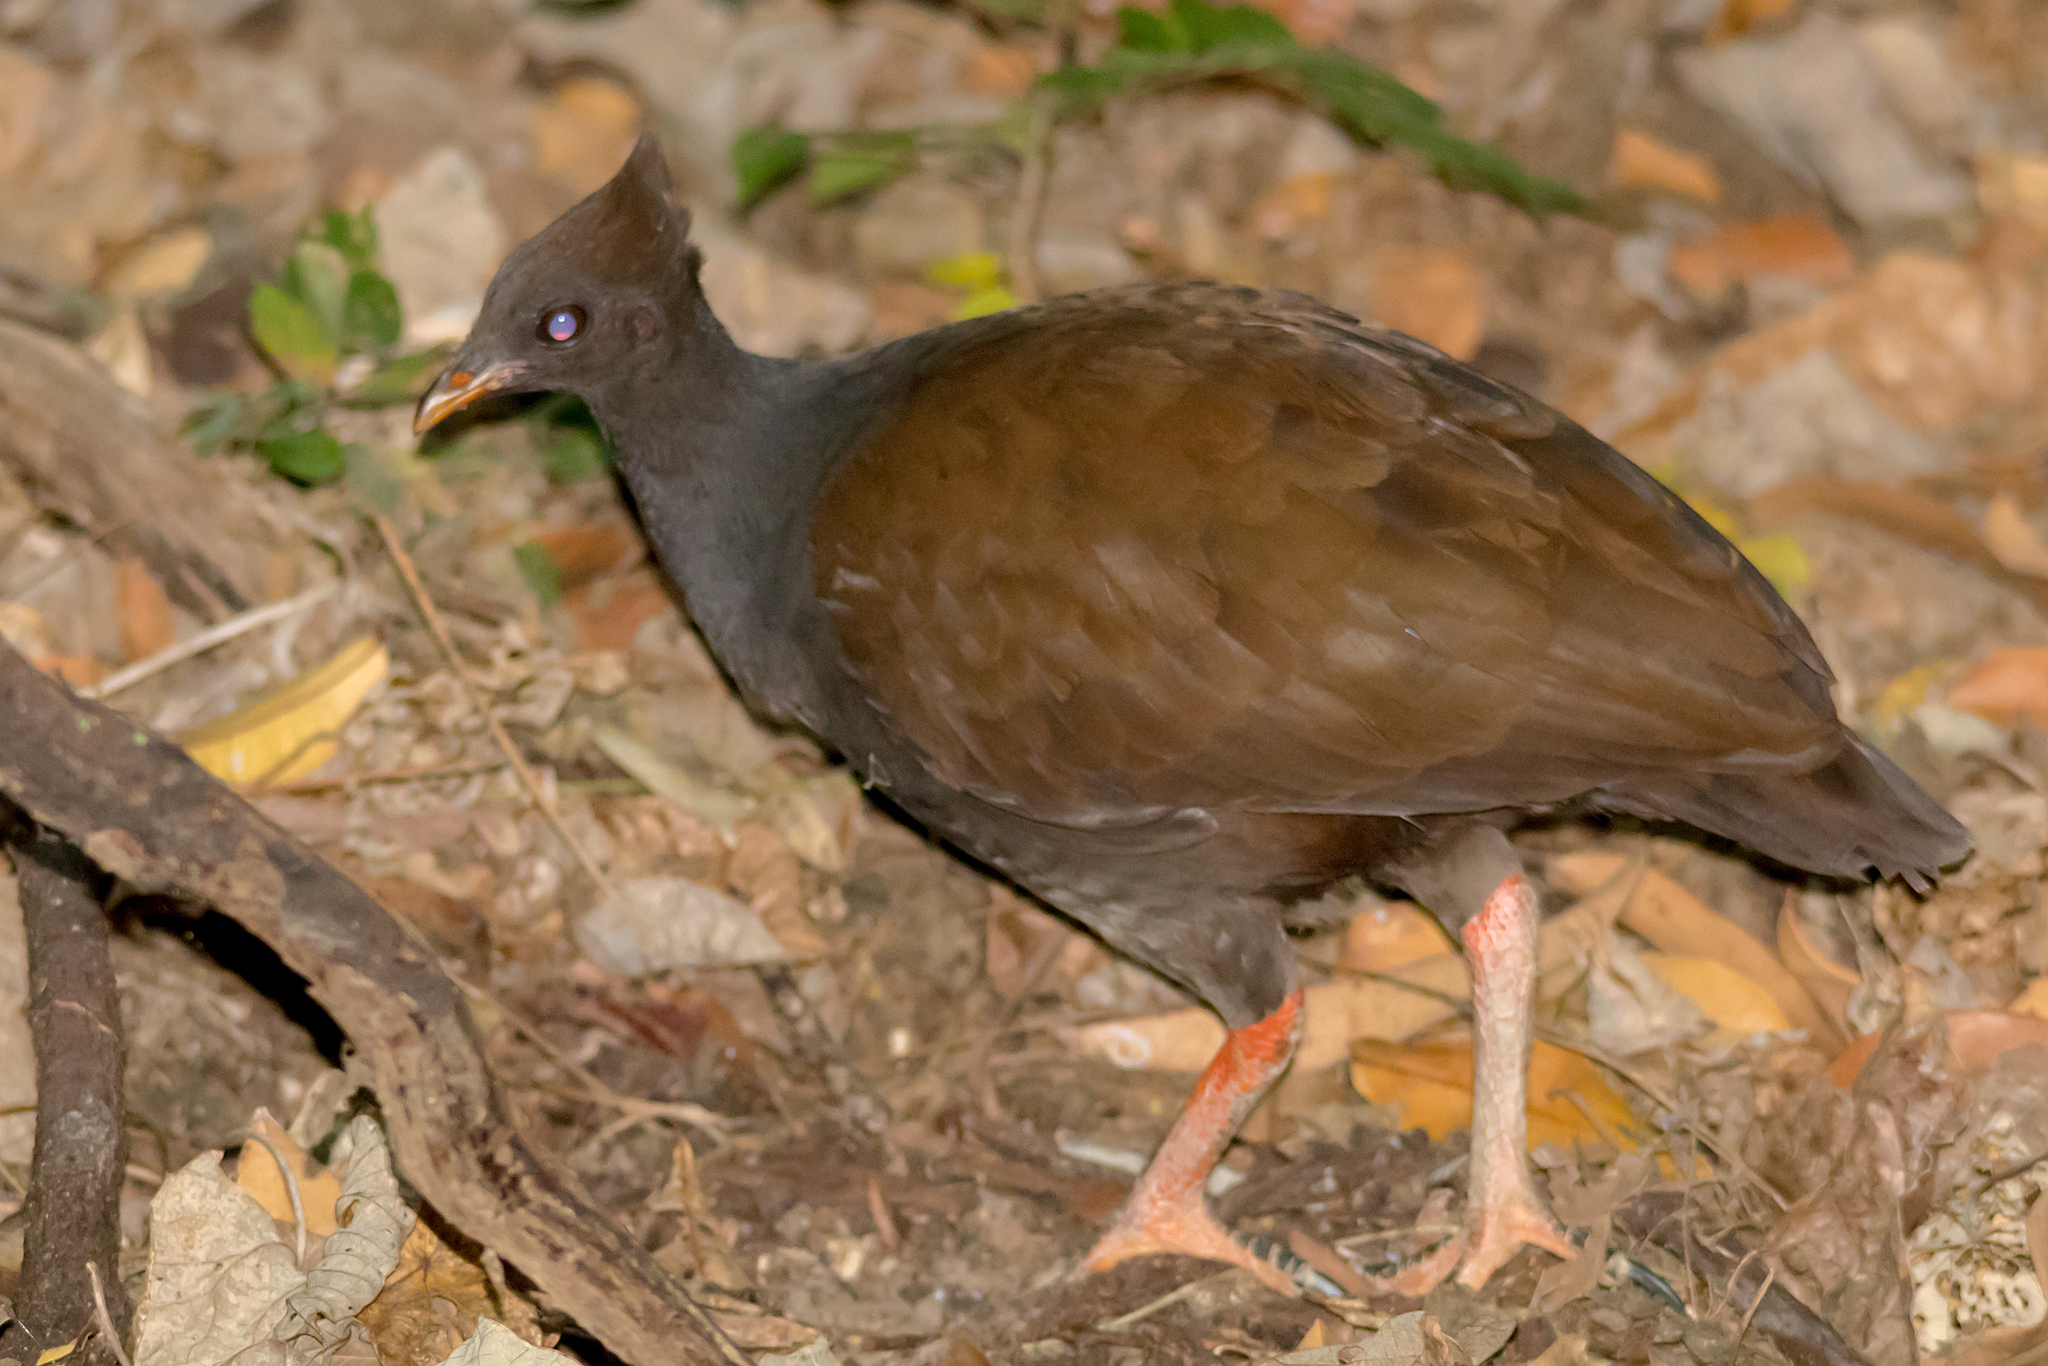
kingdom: Animalia
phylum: Chordata
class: Aves
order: Galliformes
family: Megapodiidae
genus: Megapodius
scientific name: Megapodius reinwardt
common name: Orange-footed scrubfowl
